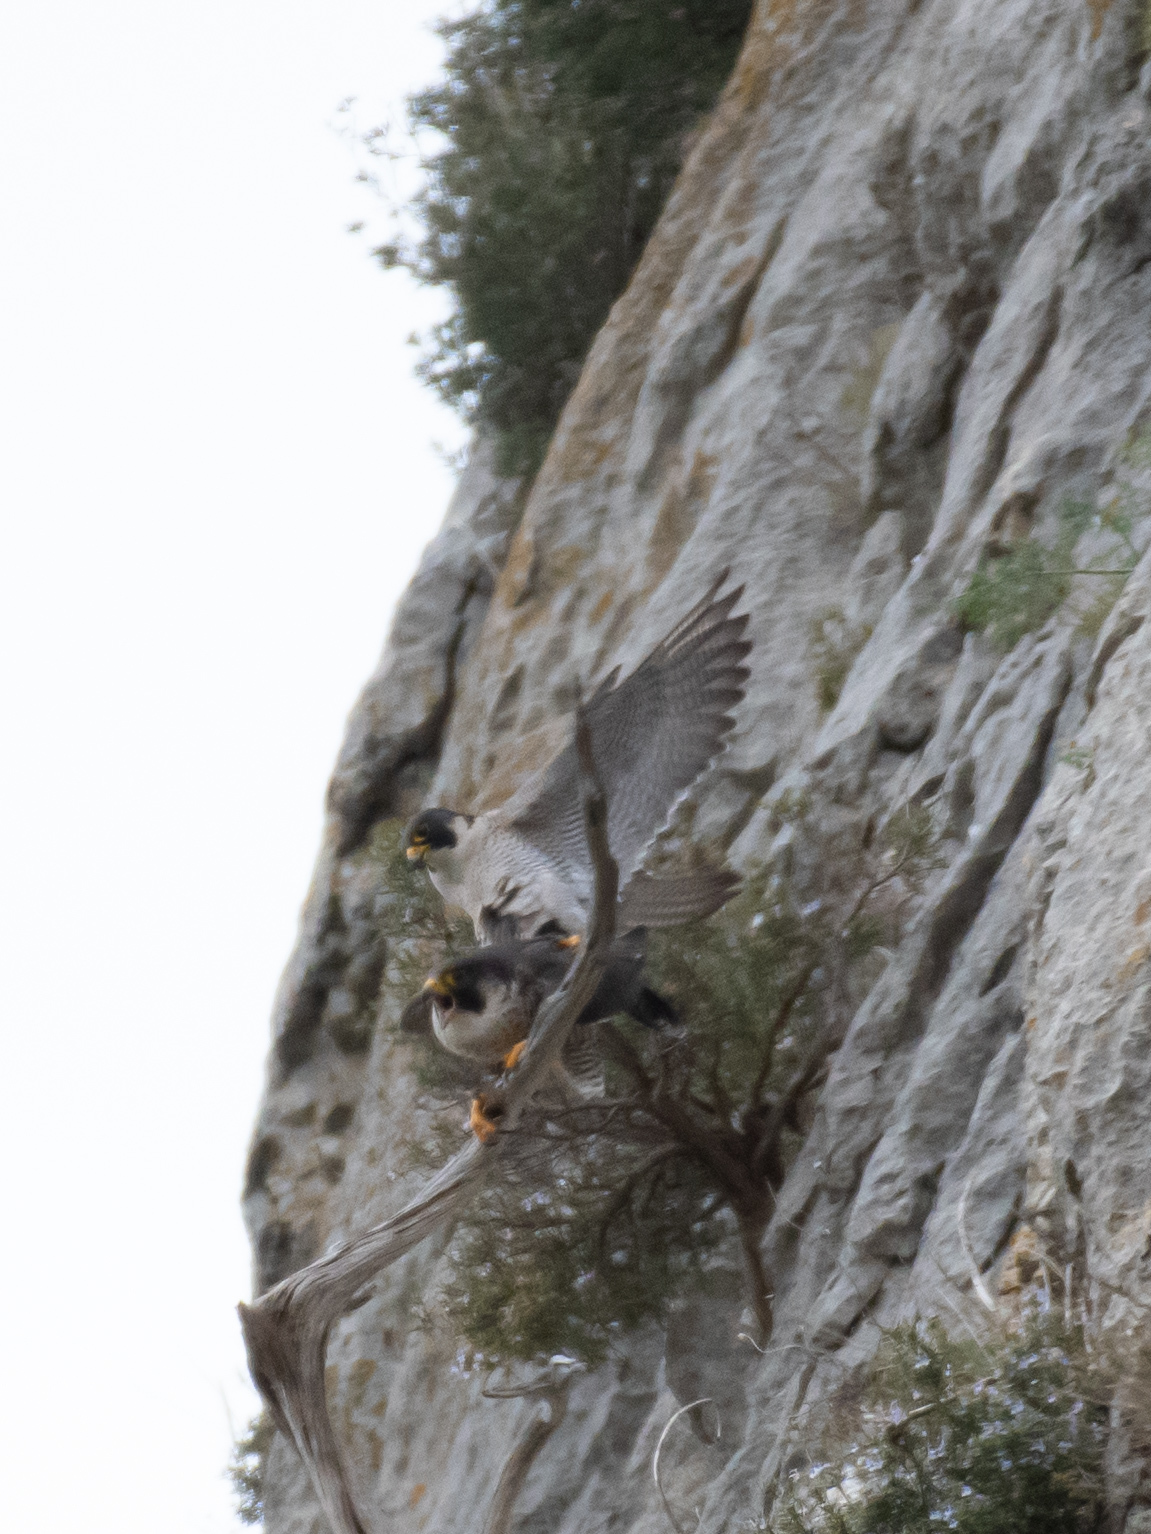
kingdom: Animalia
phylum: Chordata
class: Aves
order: Falconiformes
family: Falconidae
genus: Falco
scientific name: Falco peregrinus
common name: Peregrine falcon
